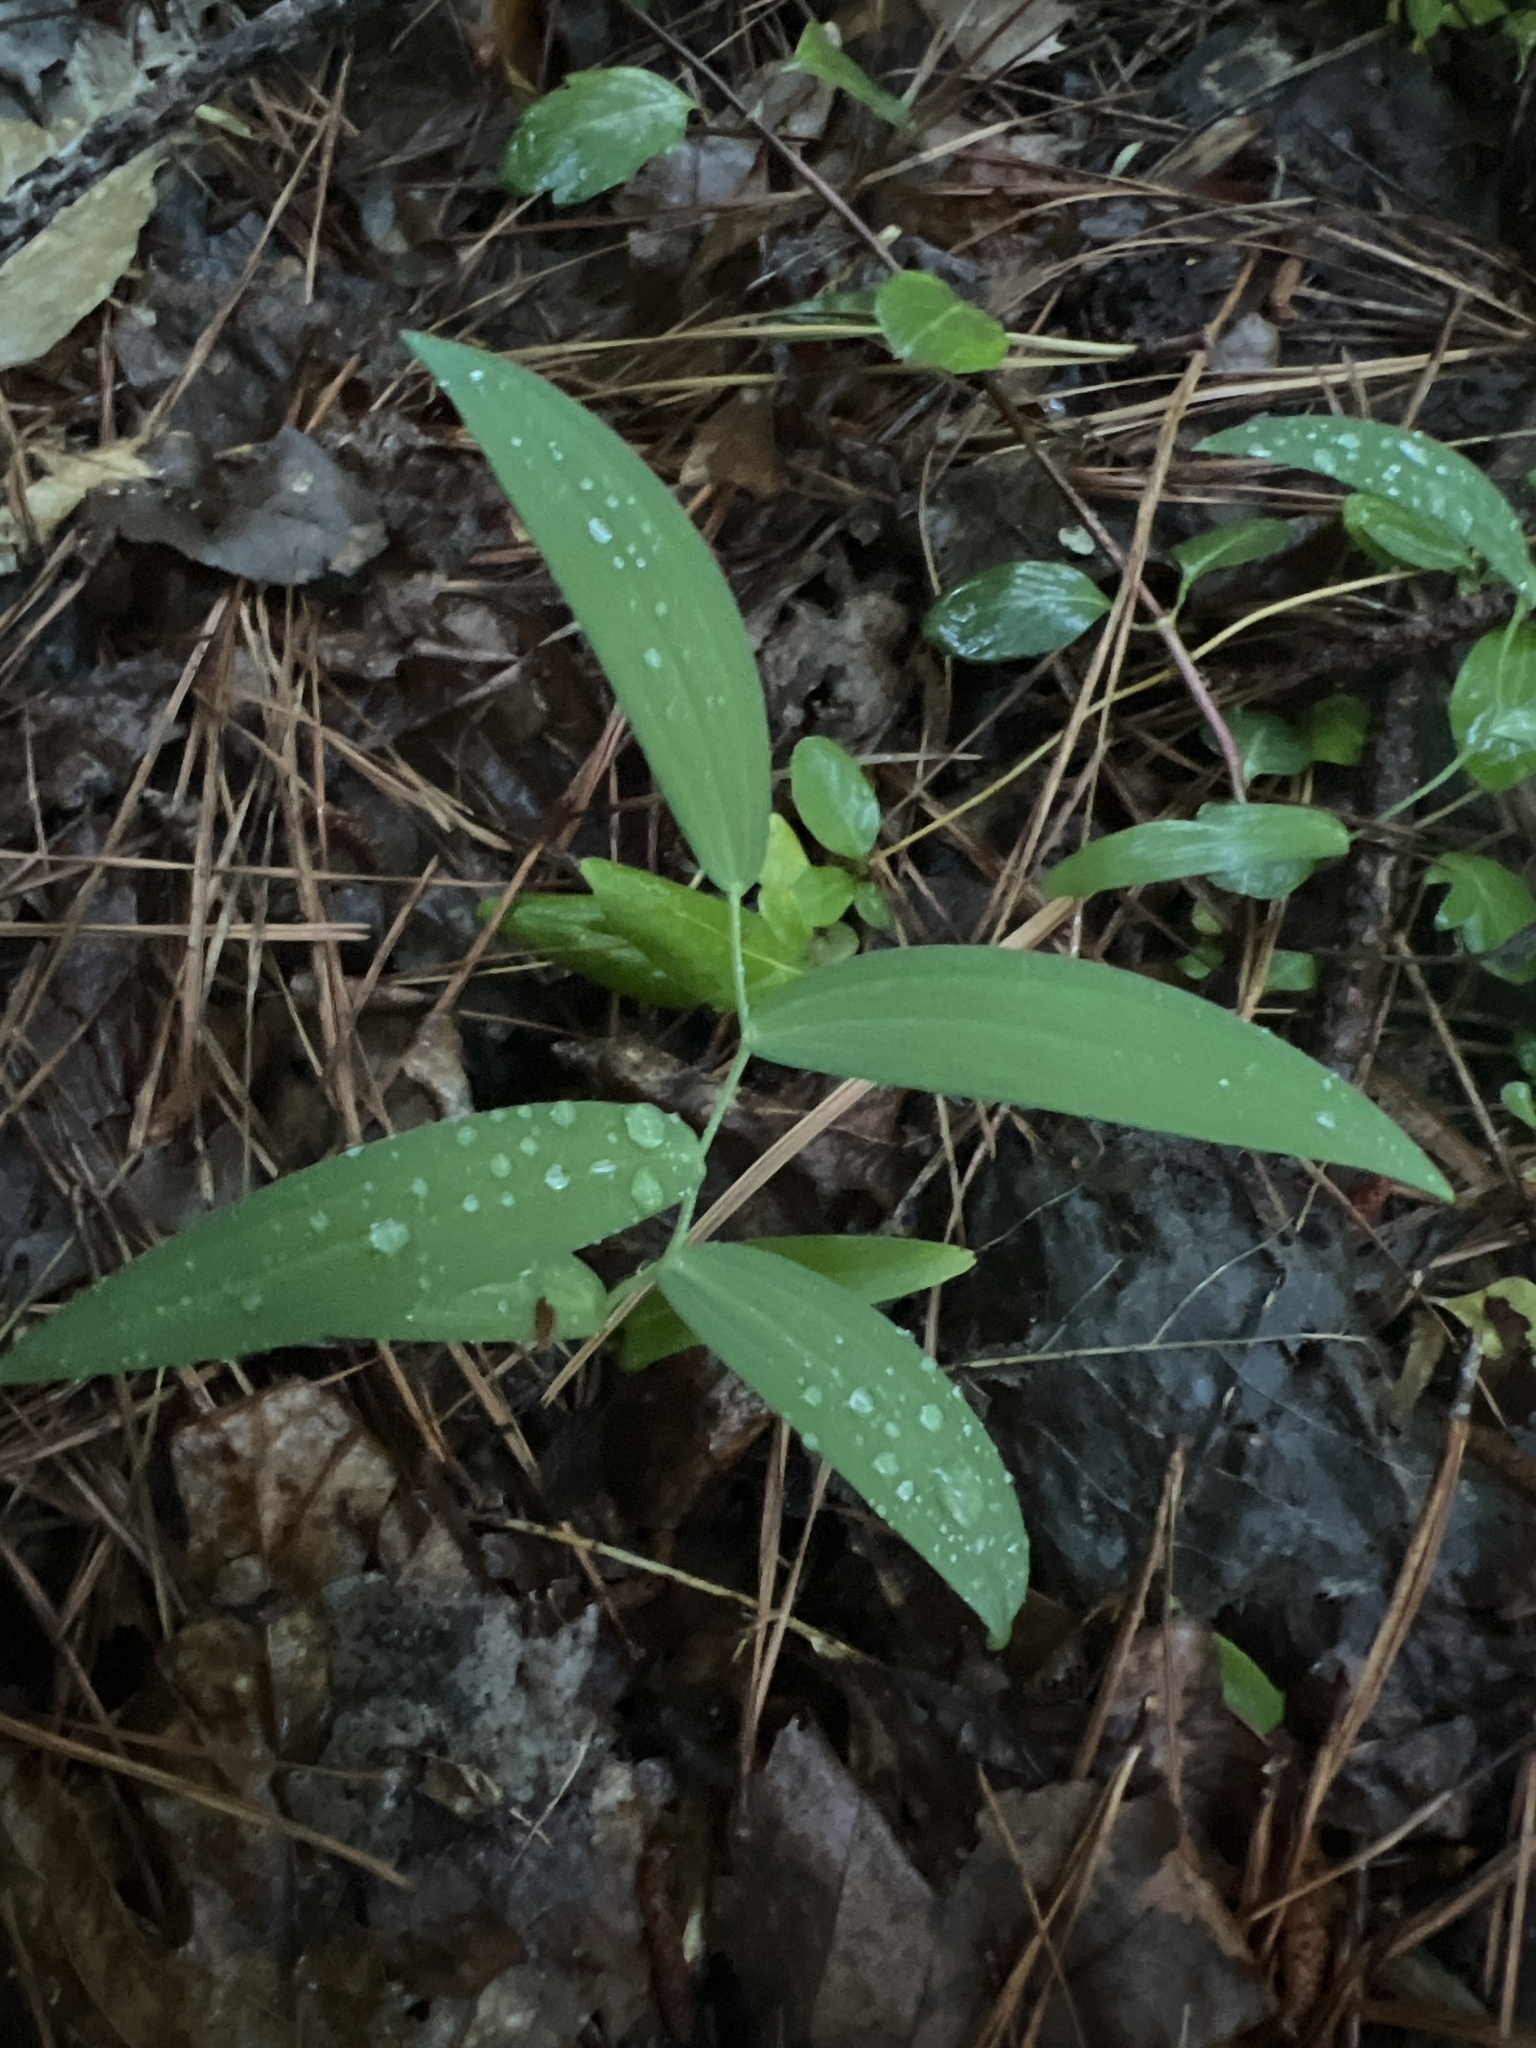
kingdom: Plantae
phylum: Tracheophyta
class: Liliopsida
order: Asparagales
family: Asparagaceae
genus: Polygonatum
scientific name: Polygonatum biflorum
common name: American solomon's-seal
